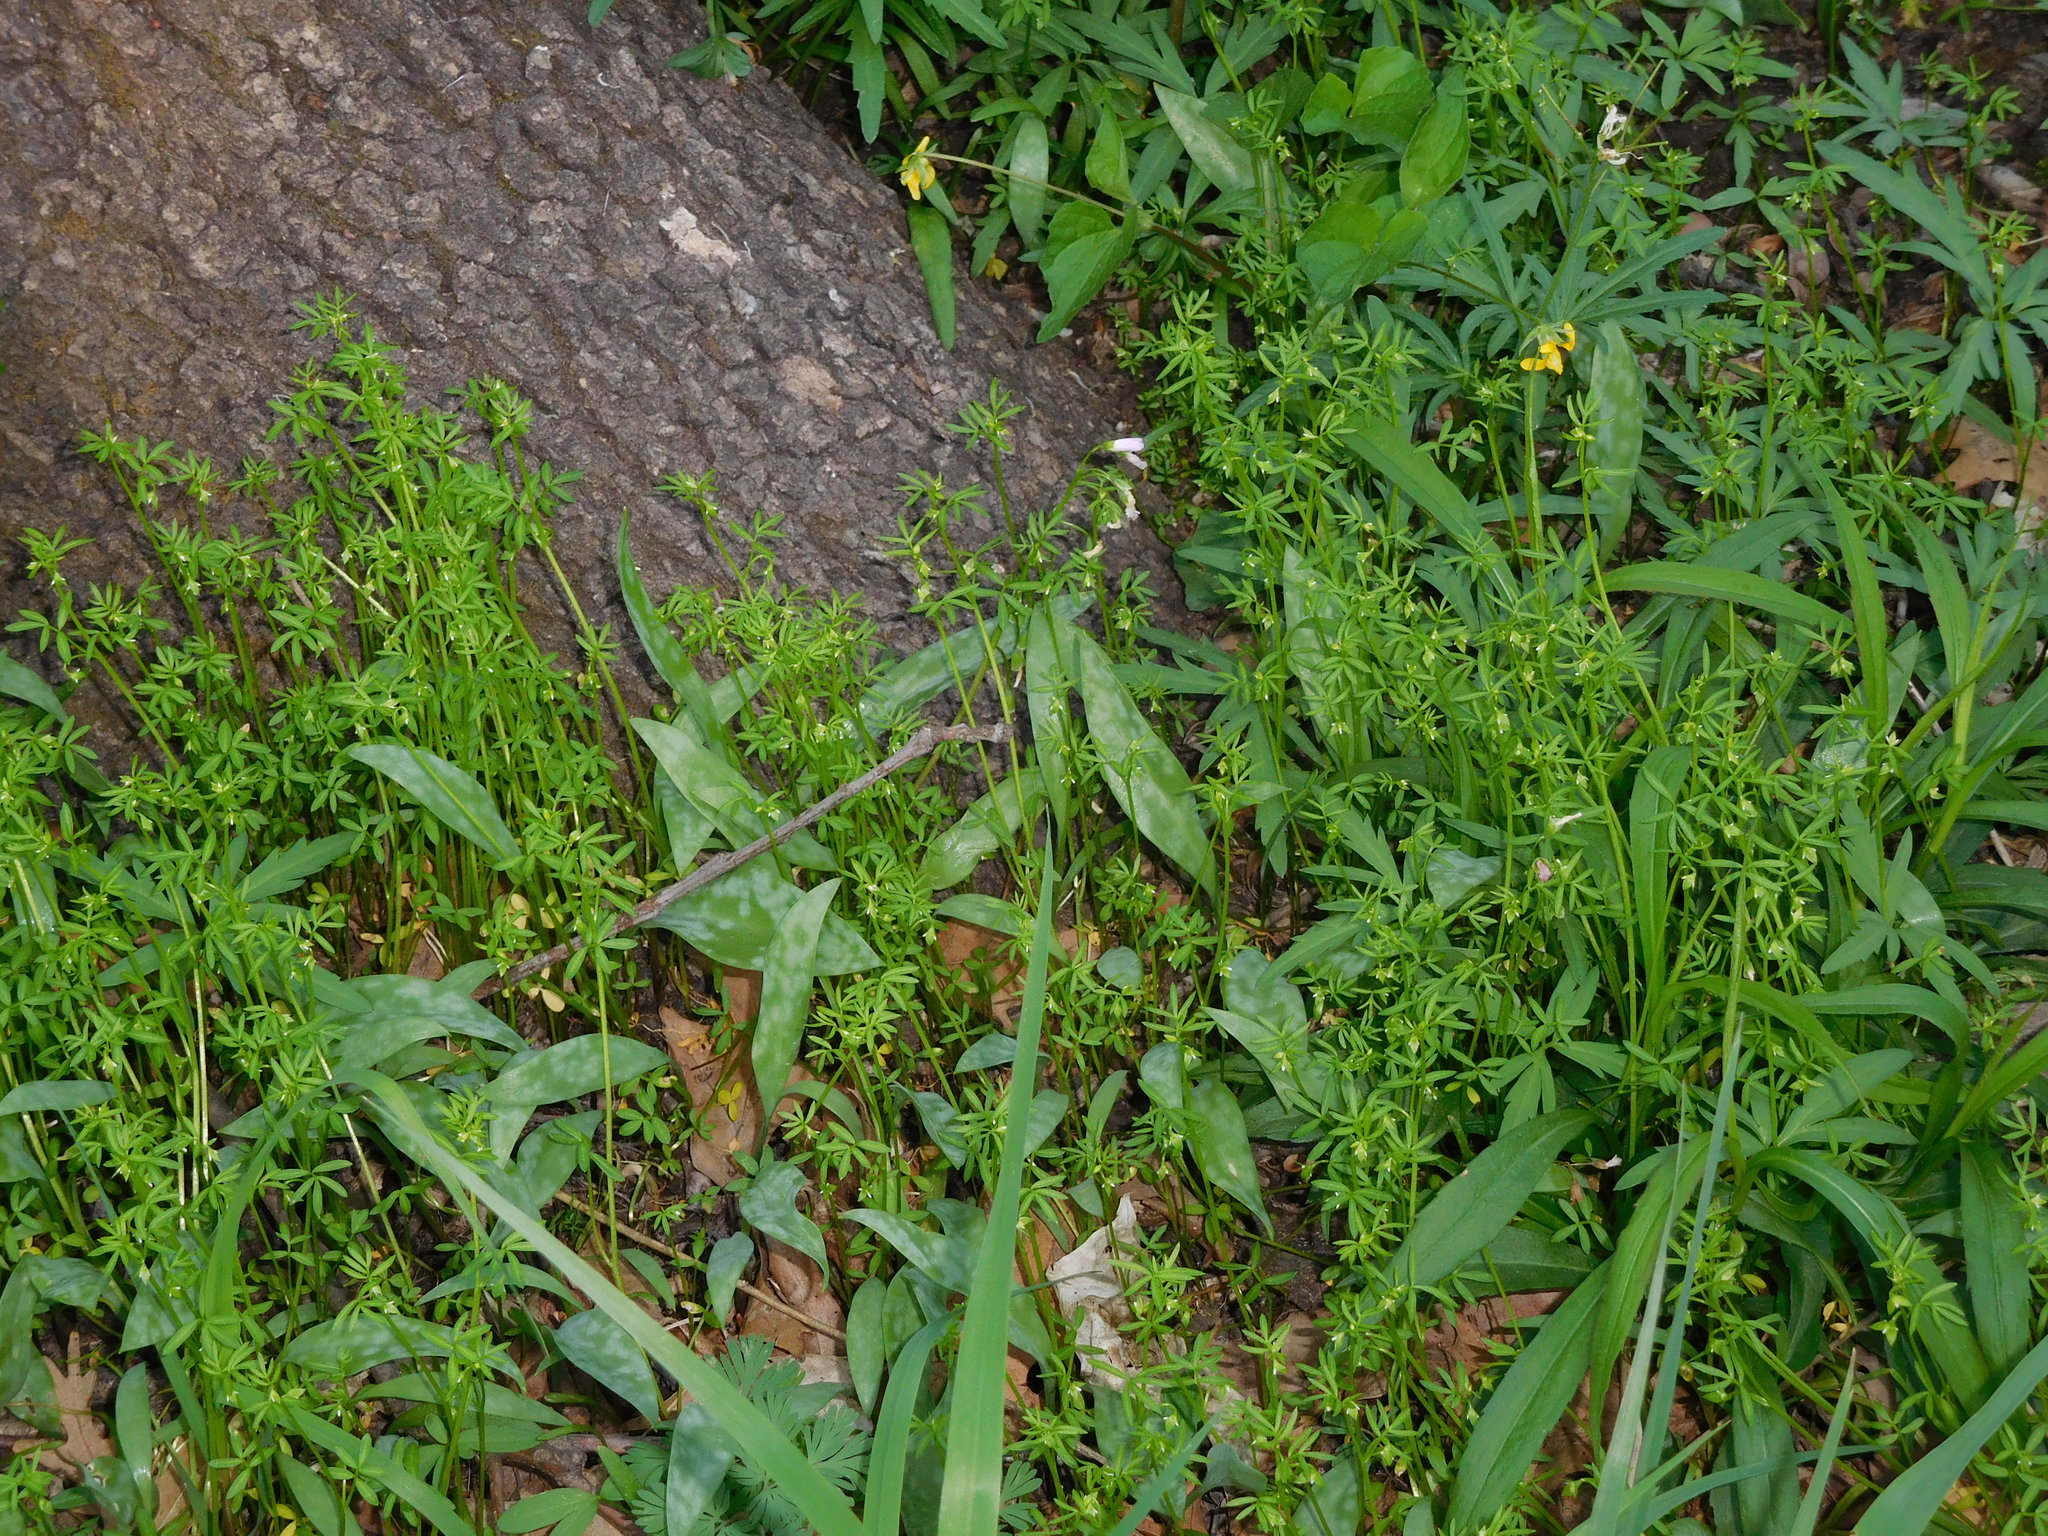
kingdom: Plantae
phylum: Tracheophyta
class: Magnoliopsida
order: Brassicales
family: Limnanthaceae
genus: Floerkea
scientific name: Floerkea proserpinacoides
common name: False mermaid
